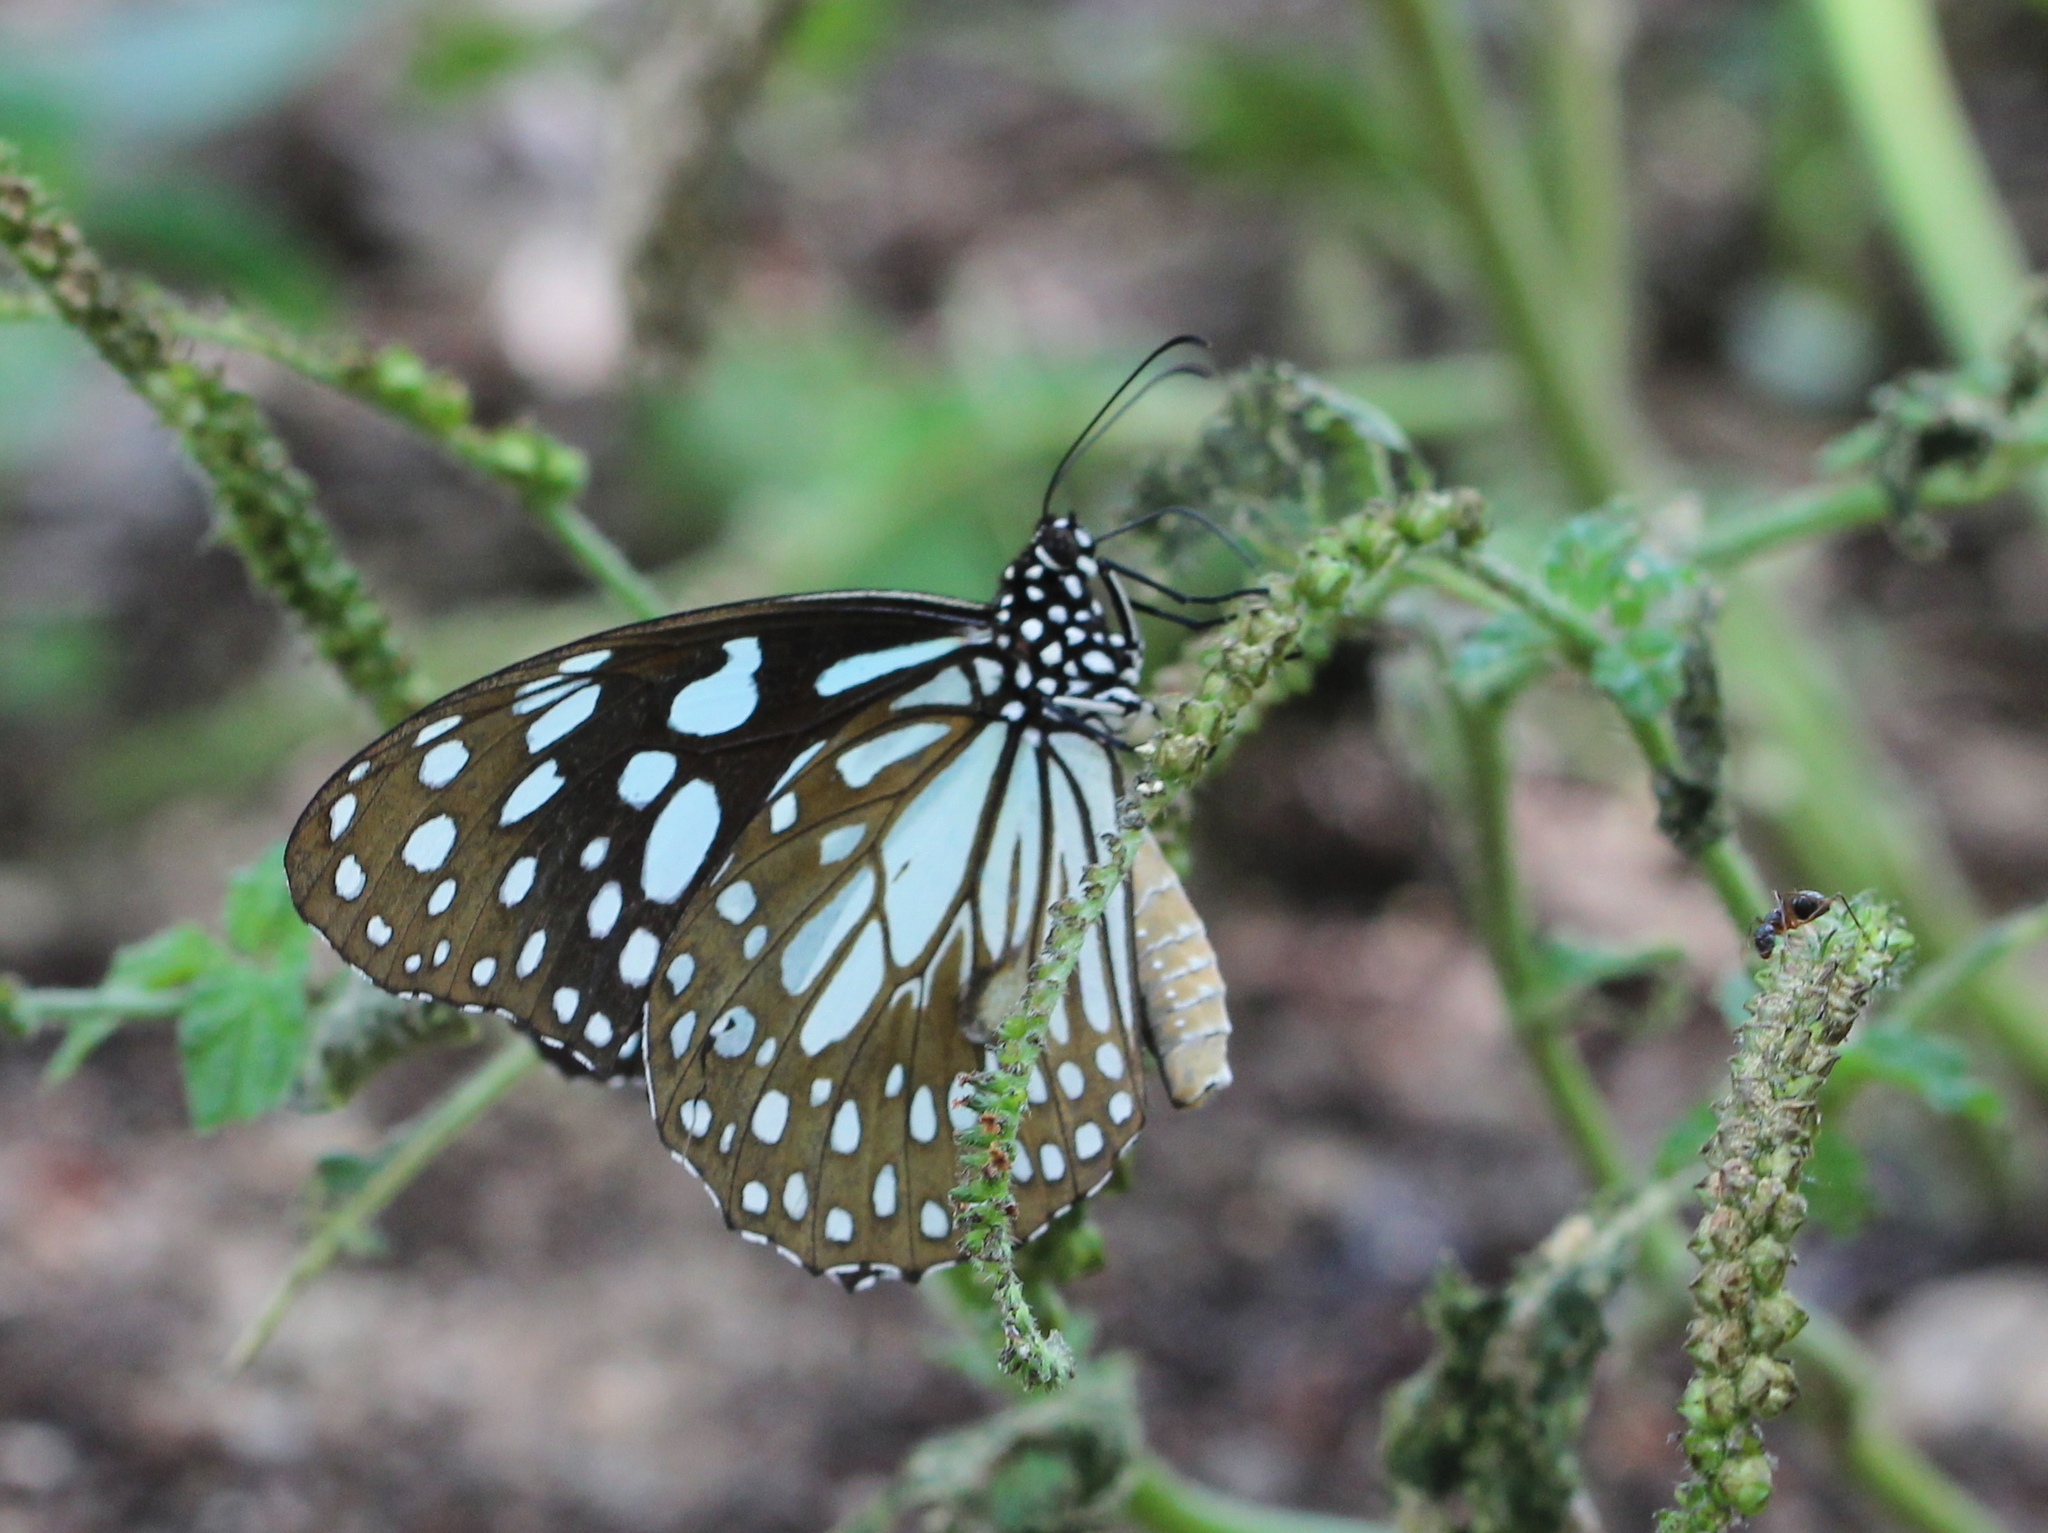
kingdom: Animalia
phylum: Arthropoda
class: Insecta
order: Lepidoptera
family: Nymphalidae
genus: Tirumala
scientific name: Tirumala limniace
